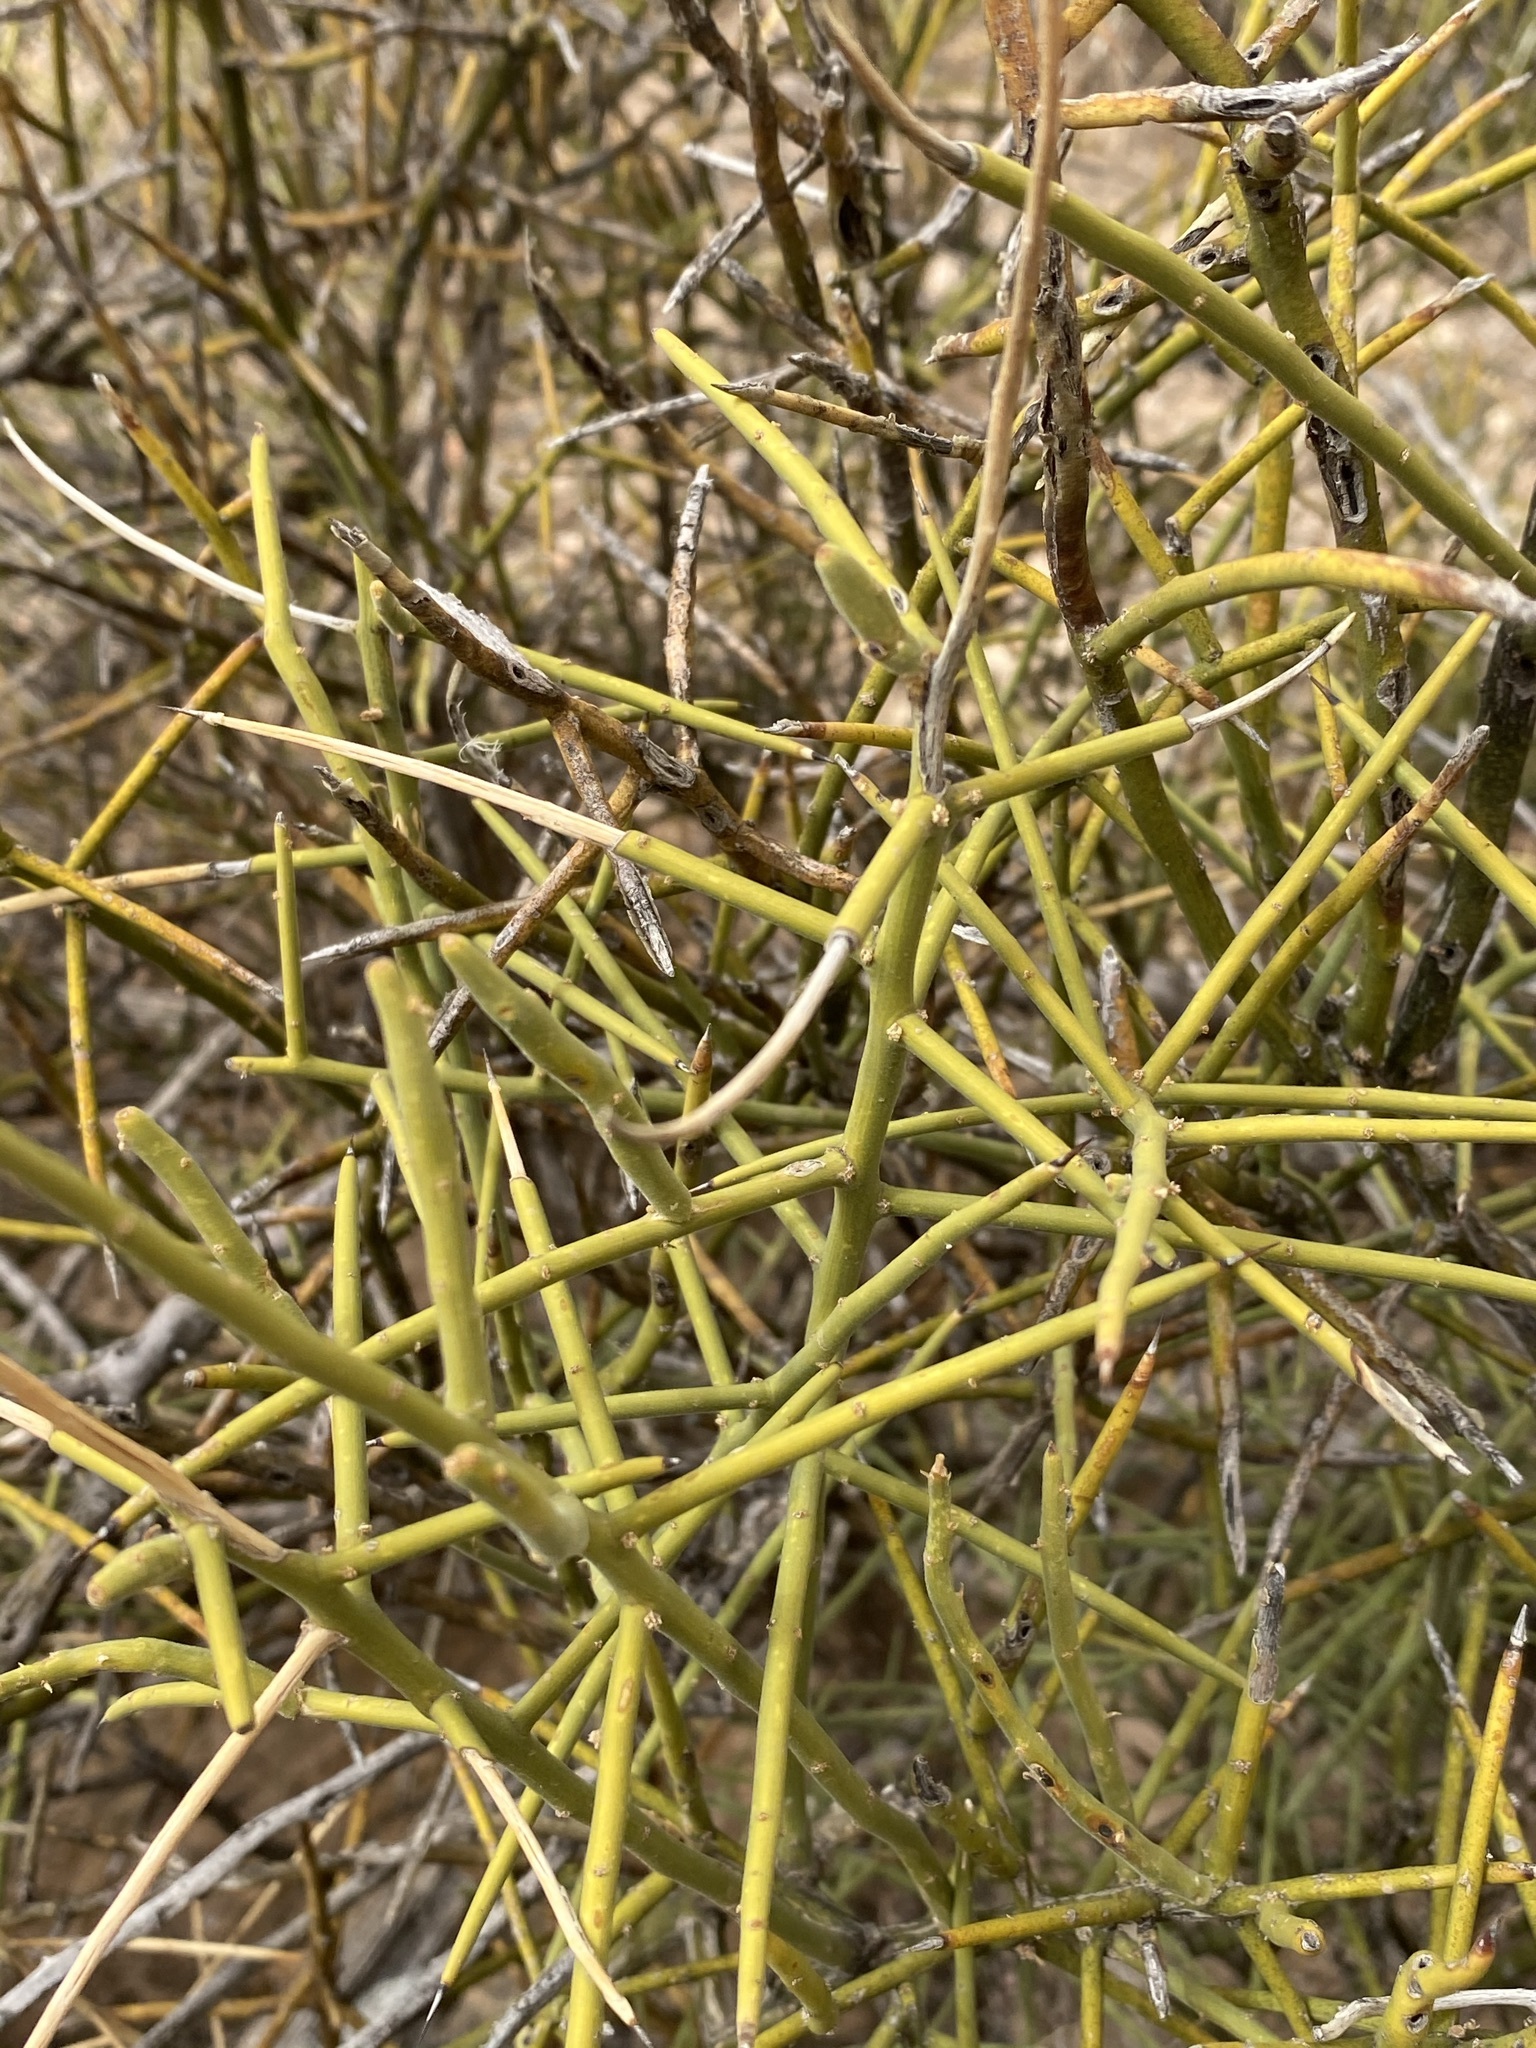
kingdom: Plantae
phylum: Tracheophyta
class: Magnoliopsida
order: Brassicales
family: Koeberliniaceae
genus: Koeberlinia
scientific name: Koeberlinia spinosa
